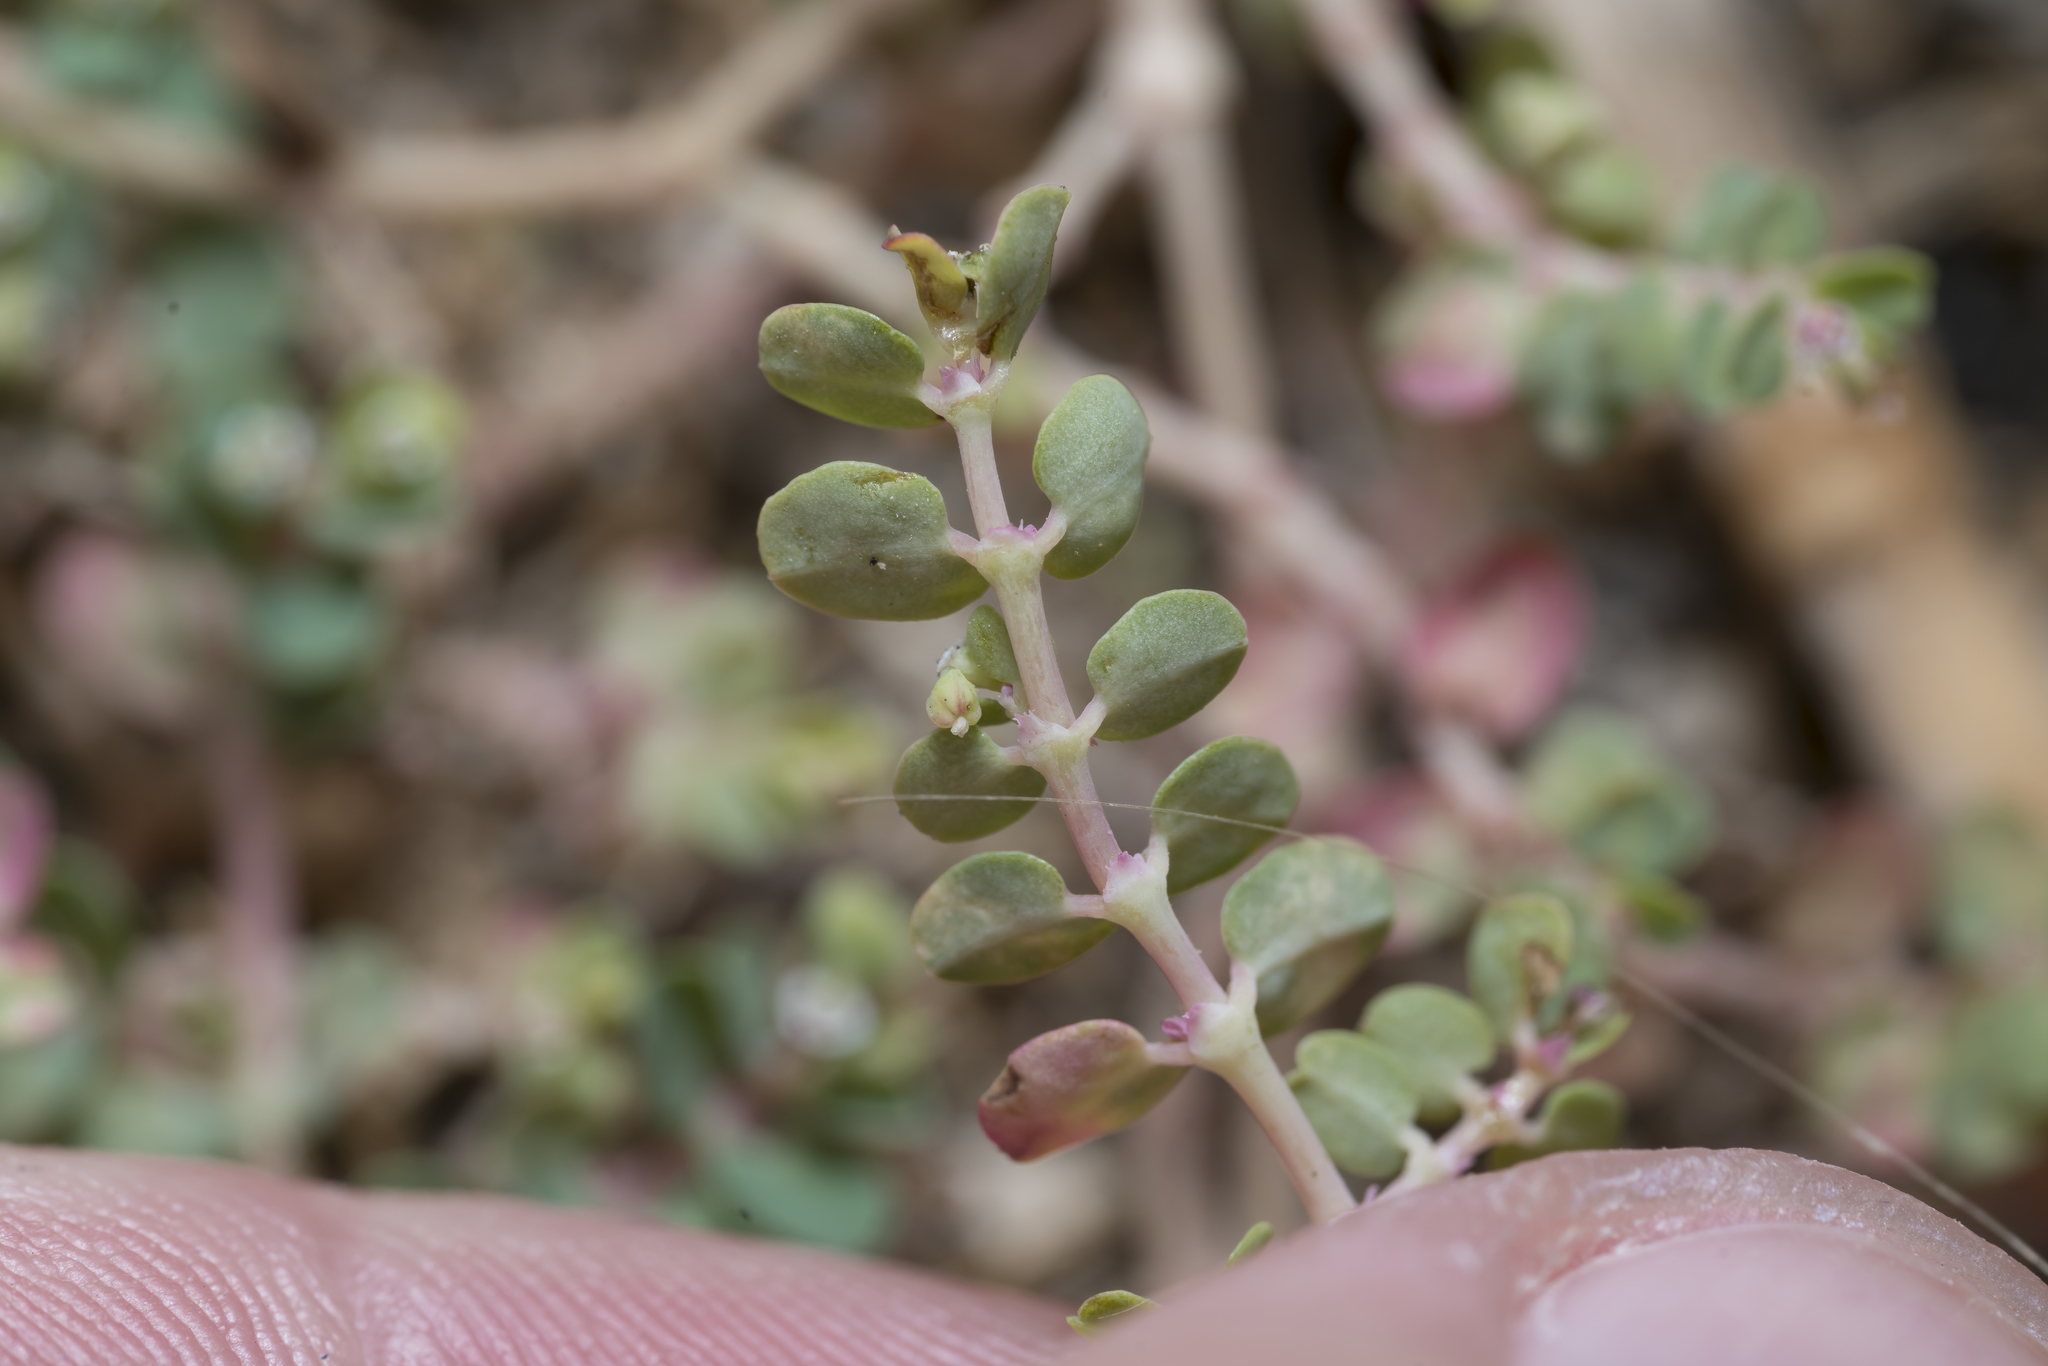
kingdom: Plantae
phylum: Tracheophyta
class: Magnoliopsida
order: Malpighiales
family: Euphorbiaceae
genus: Euphorbia
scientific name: Euphorbia serpens
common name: Matted sandmat
